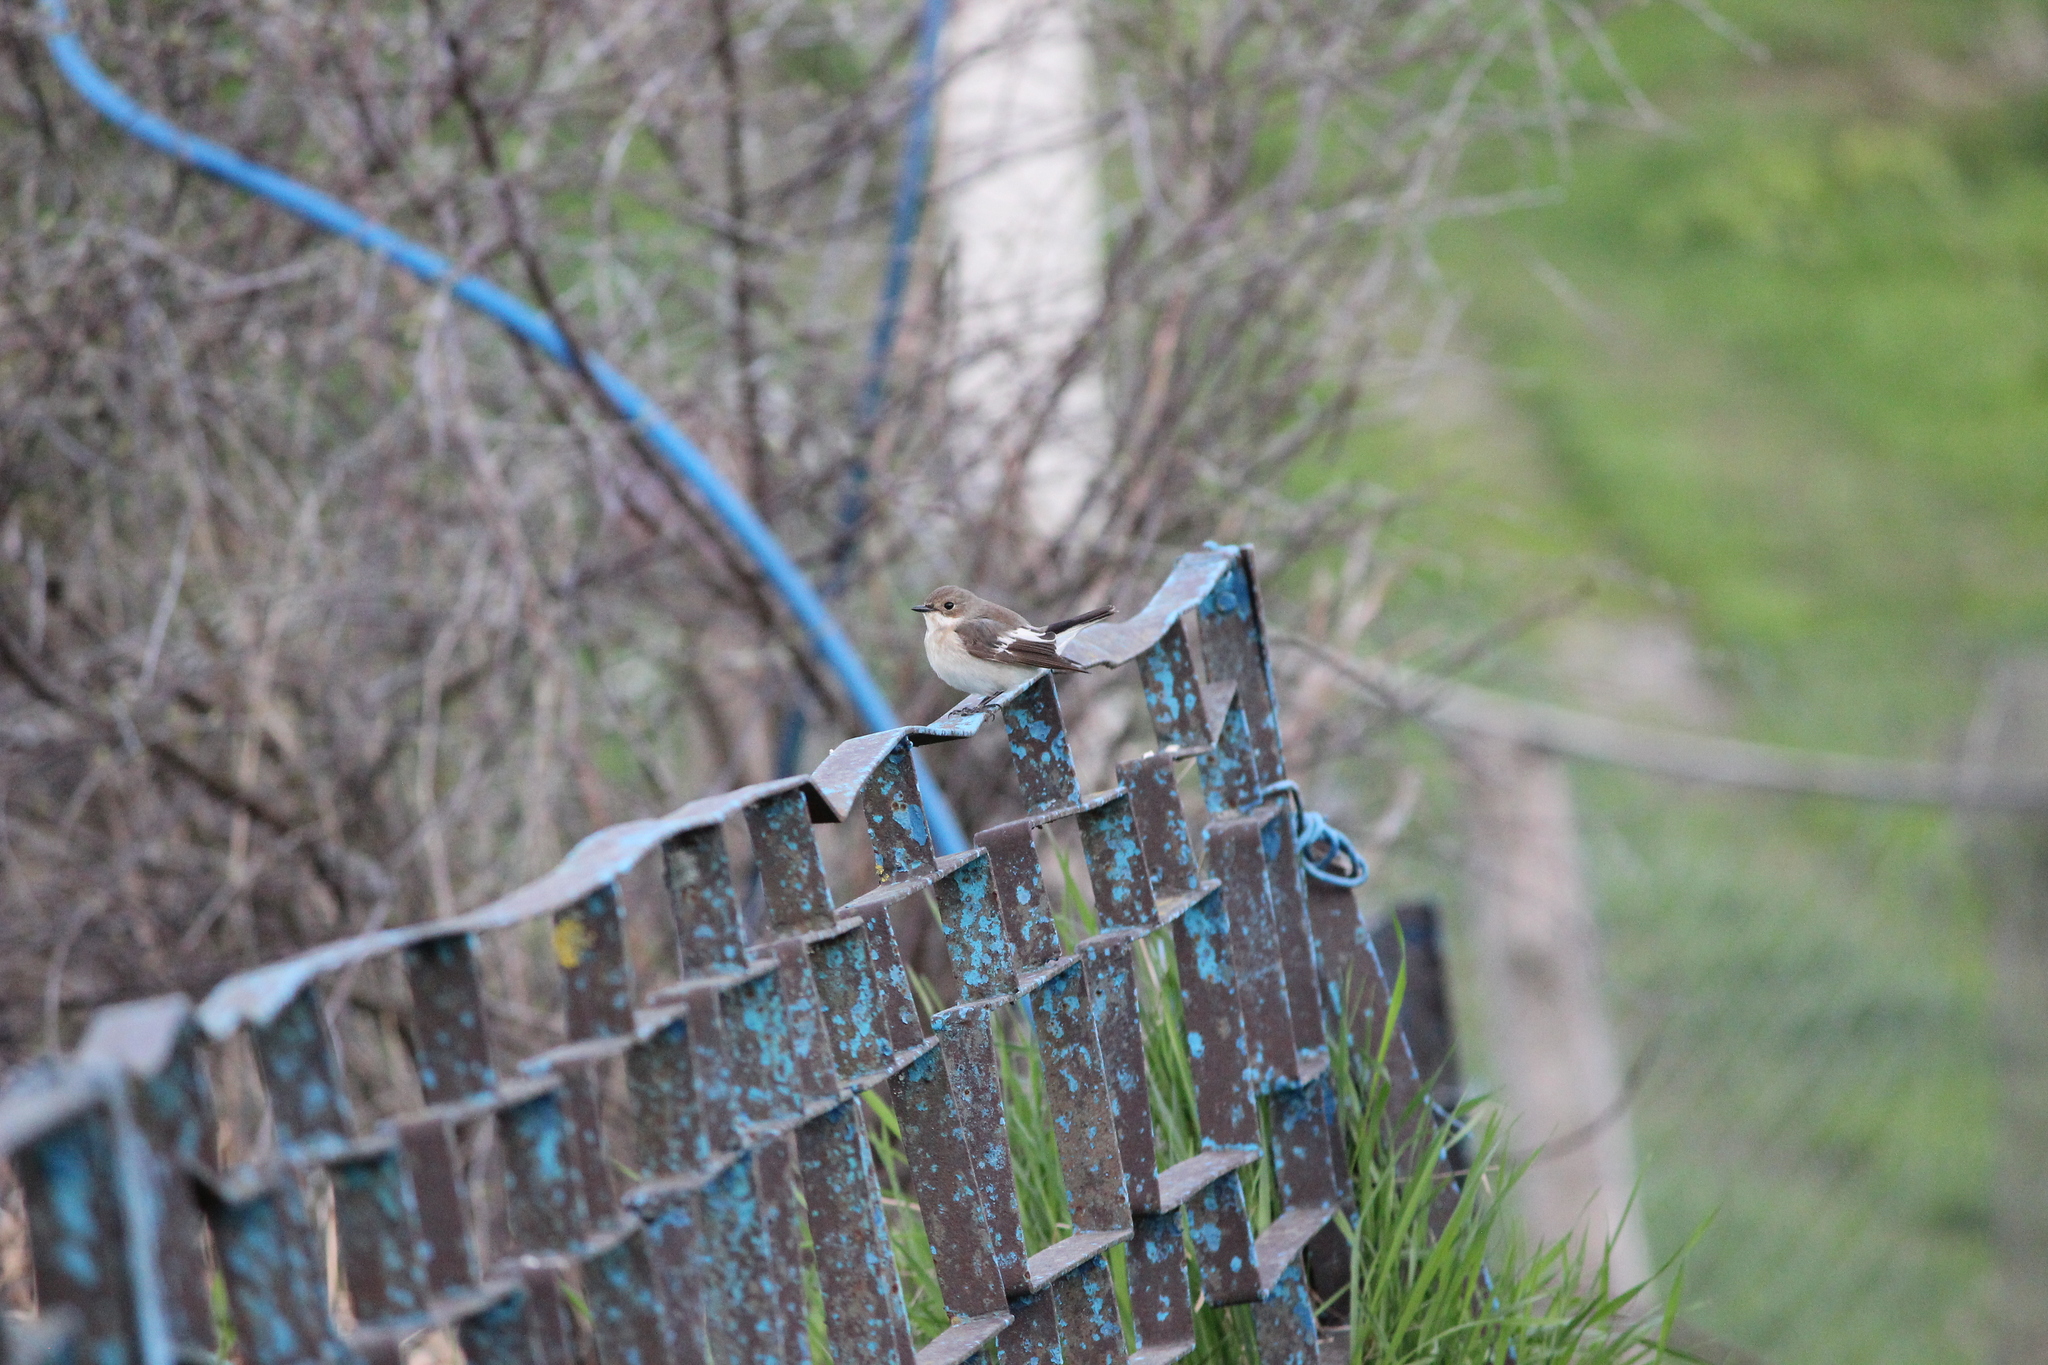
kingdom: Animalia
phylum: Chordata
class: Aves
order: Passeriformes
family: Muscicapidae
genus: Ficedula
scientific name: Ficedula hypoleuca
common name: European pied flycatcher
